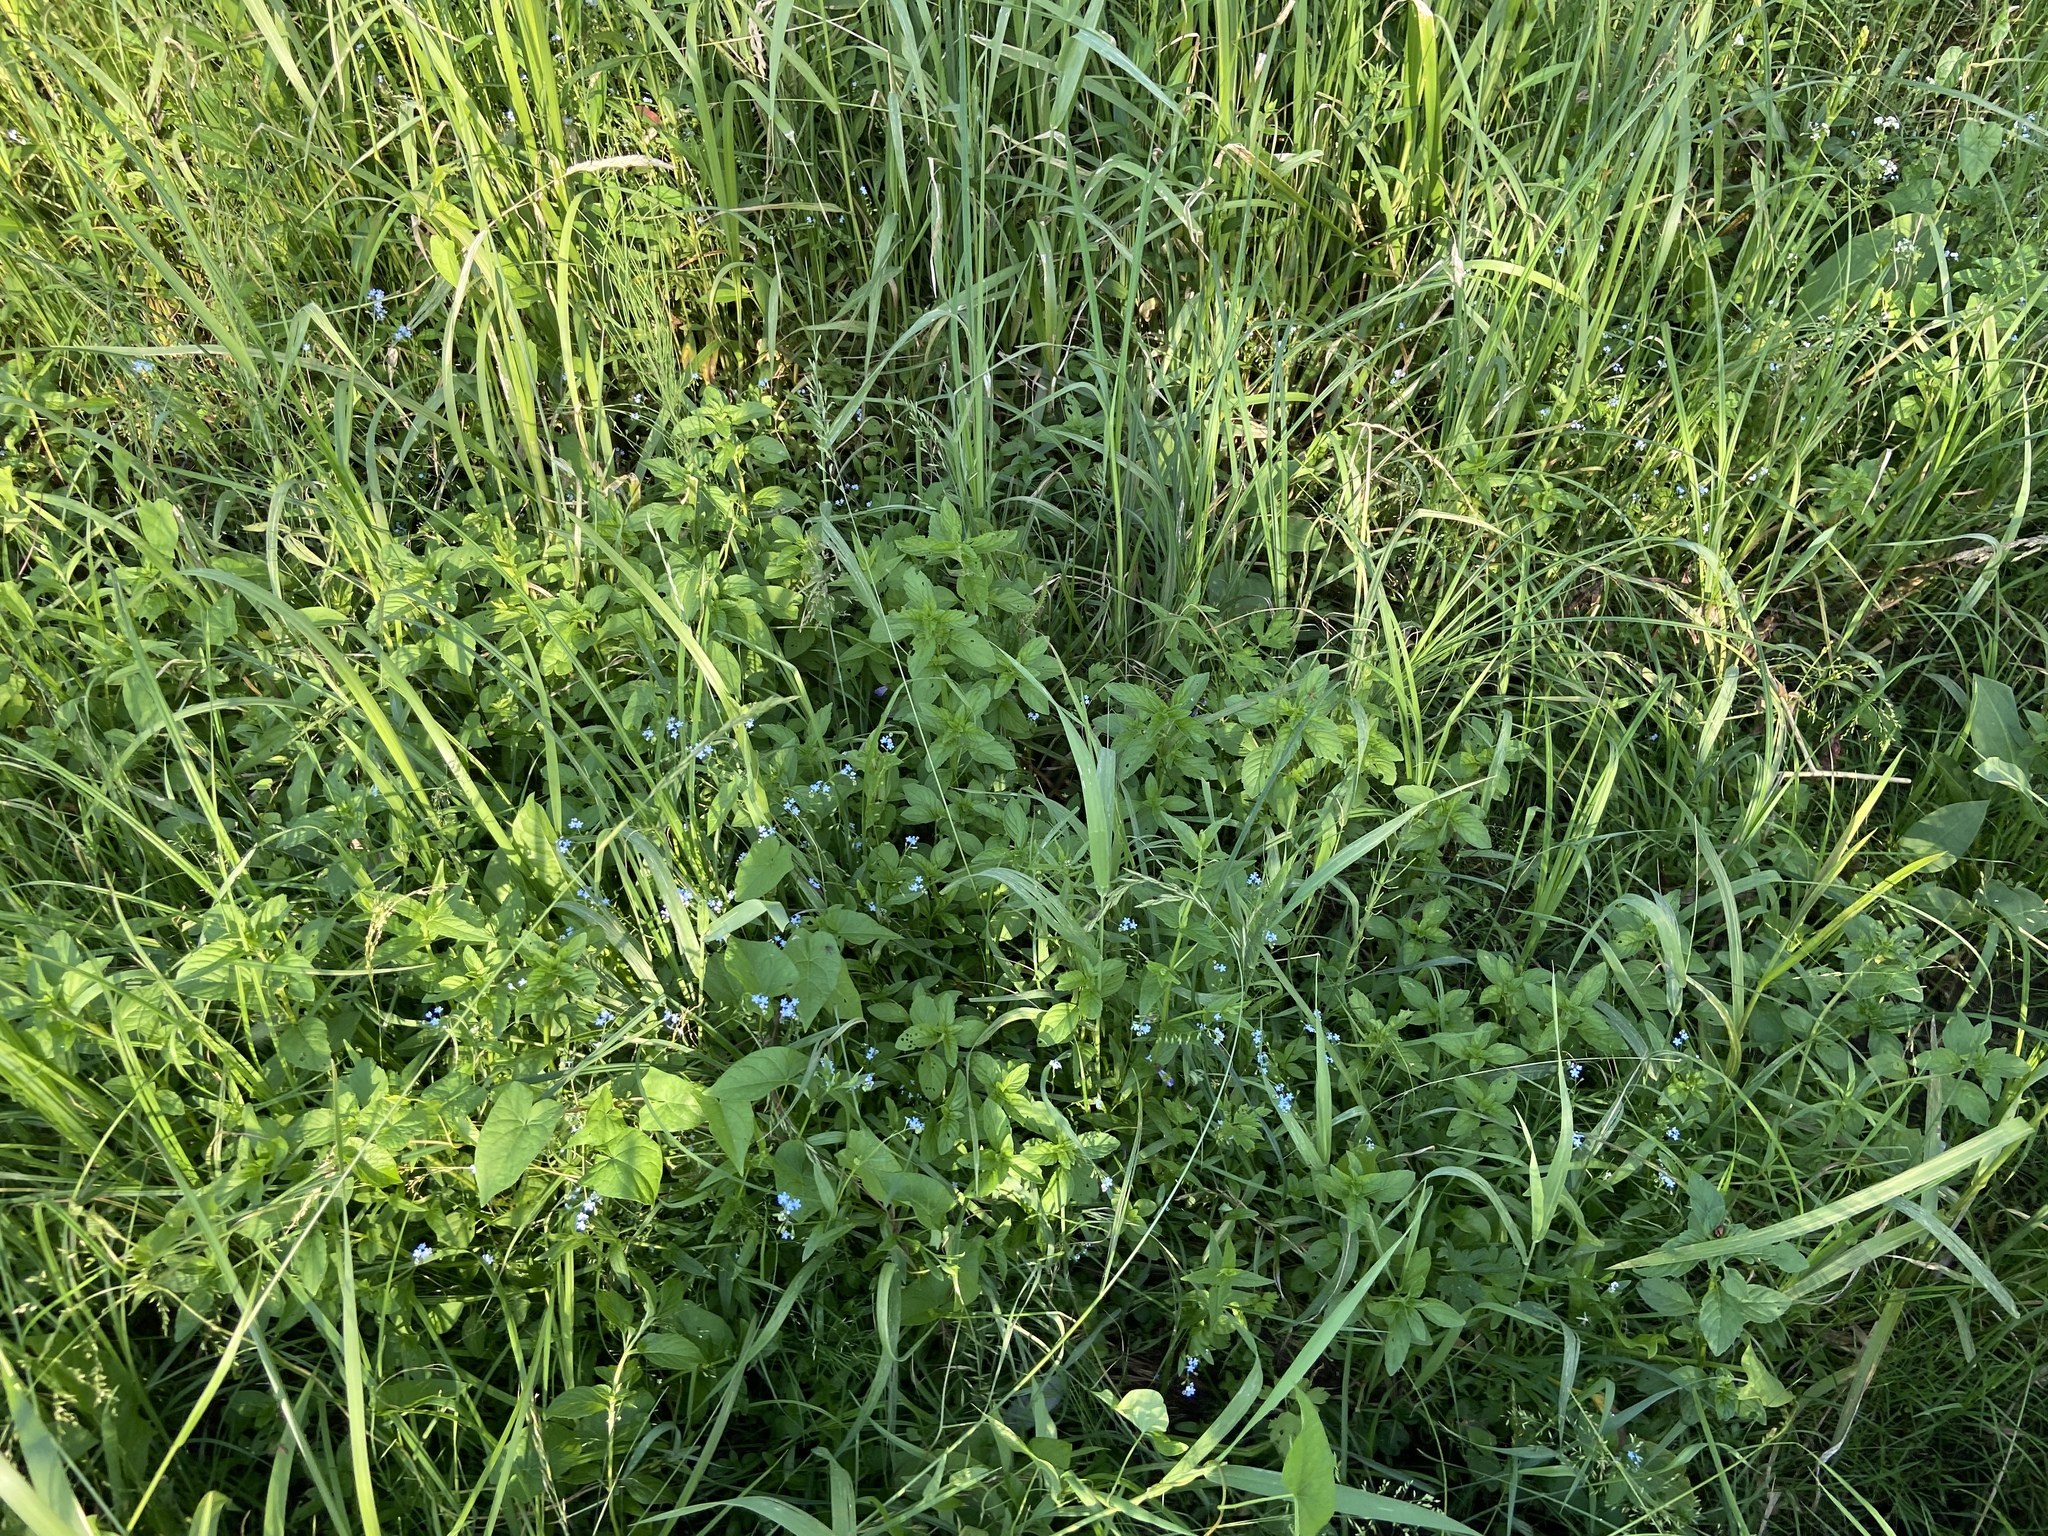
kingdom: Plantae
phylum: Tracheophyta
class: Magnoliopsida
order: Lamiales
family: Lamiaceae
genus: Mentha
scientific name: Mentha arvensis
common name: Corn mint
